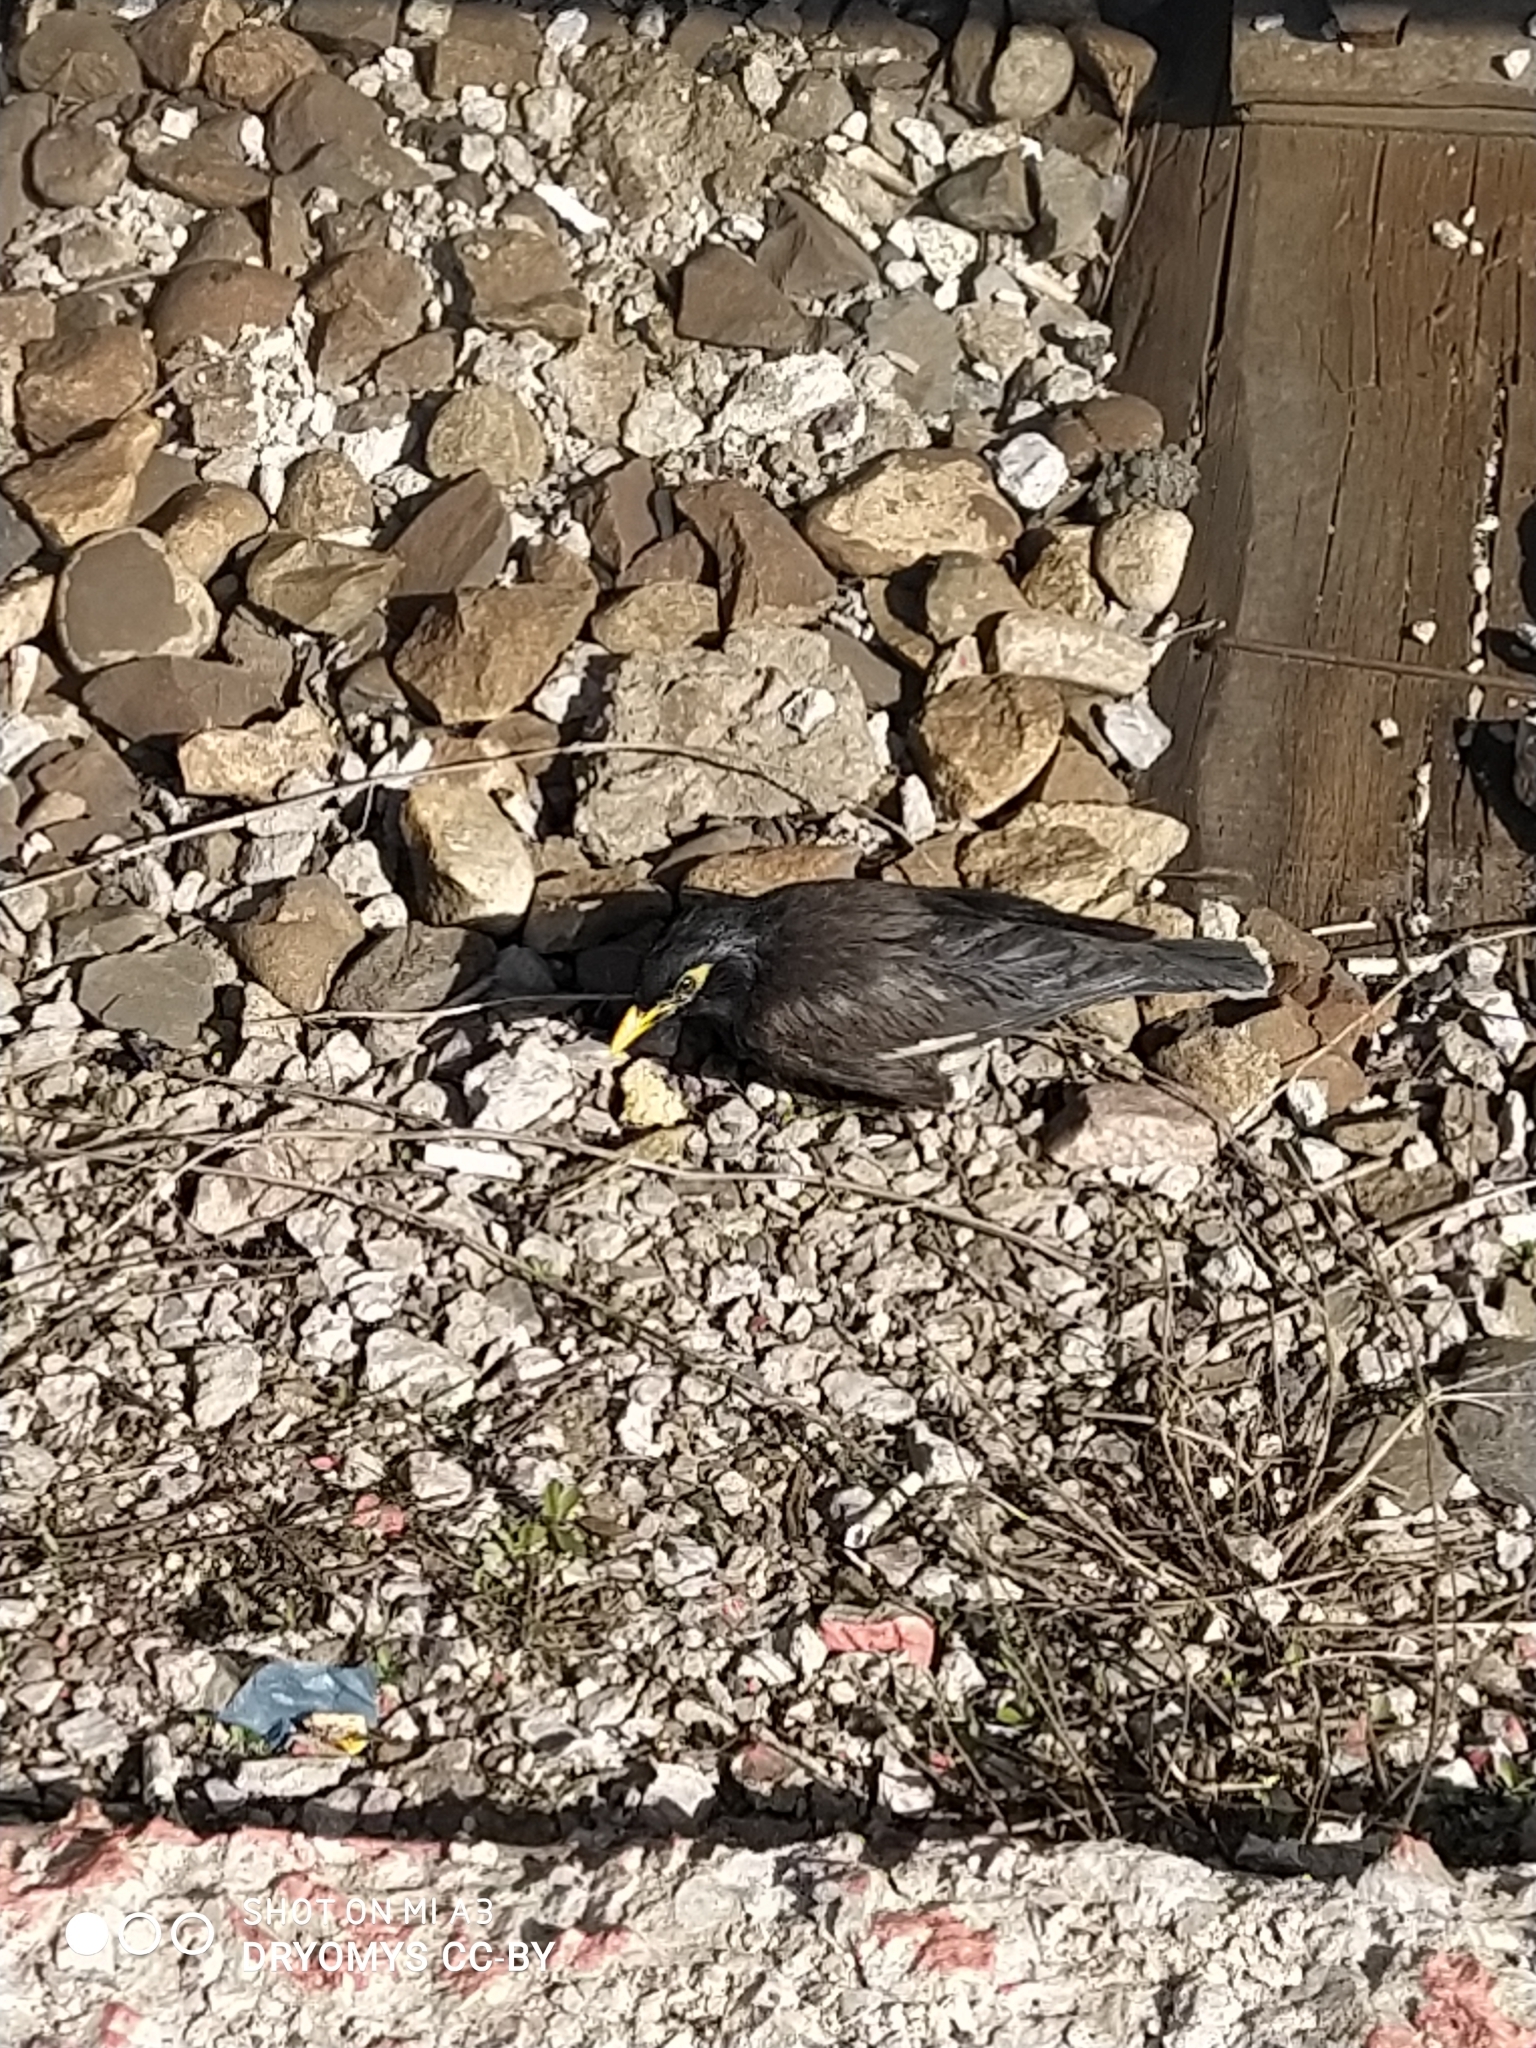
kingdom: Animalia
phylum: Chordata
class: Aves
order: Passeriformes
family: Sturnidae
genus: Acridotheres
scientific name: Acridotheres tristis
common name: Common myna
